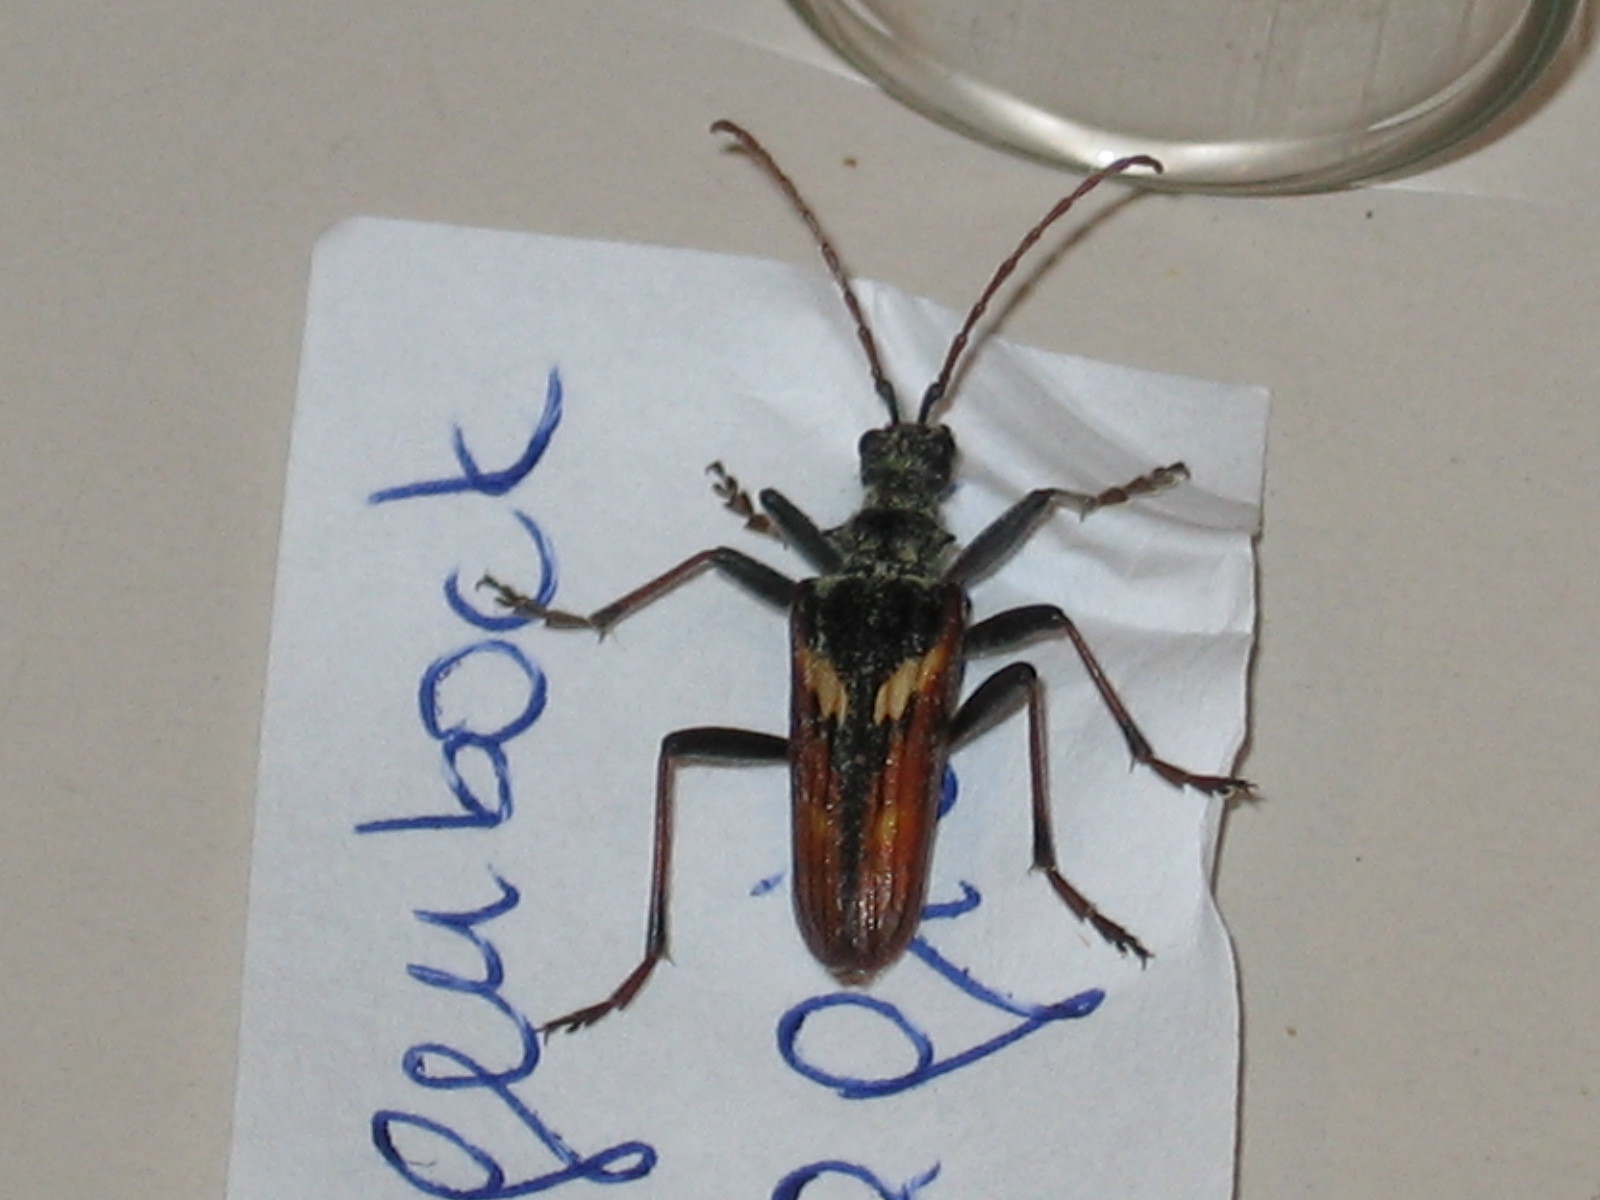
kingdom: Animalia
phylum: Arthropoda
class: Insecta
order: Coleoptera
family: Cerambycidae
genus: Rhagium
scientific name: Rhagium bifasciatum
